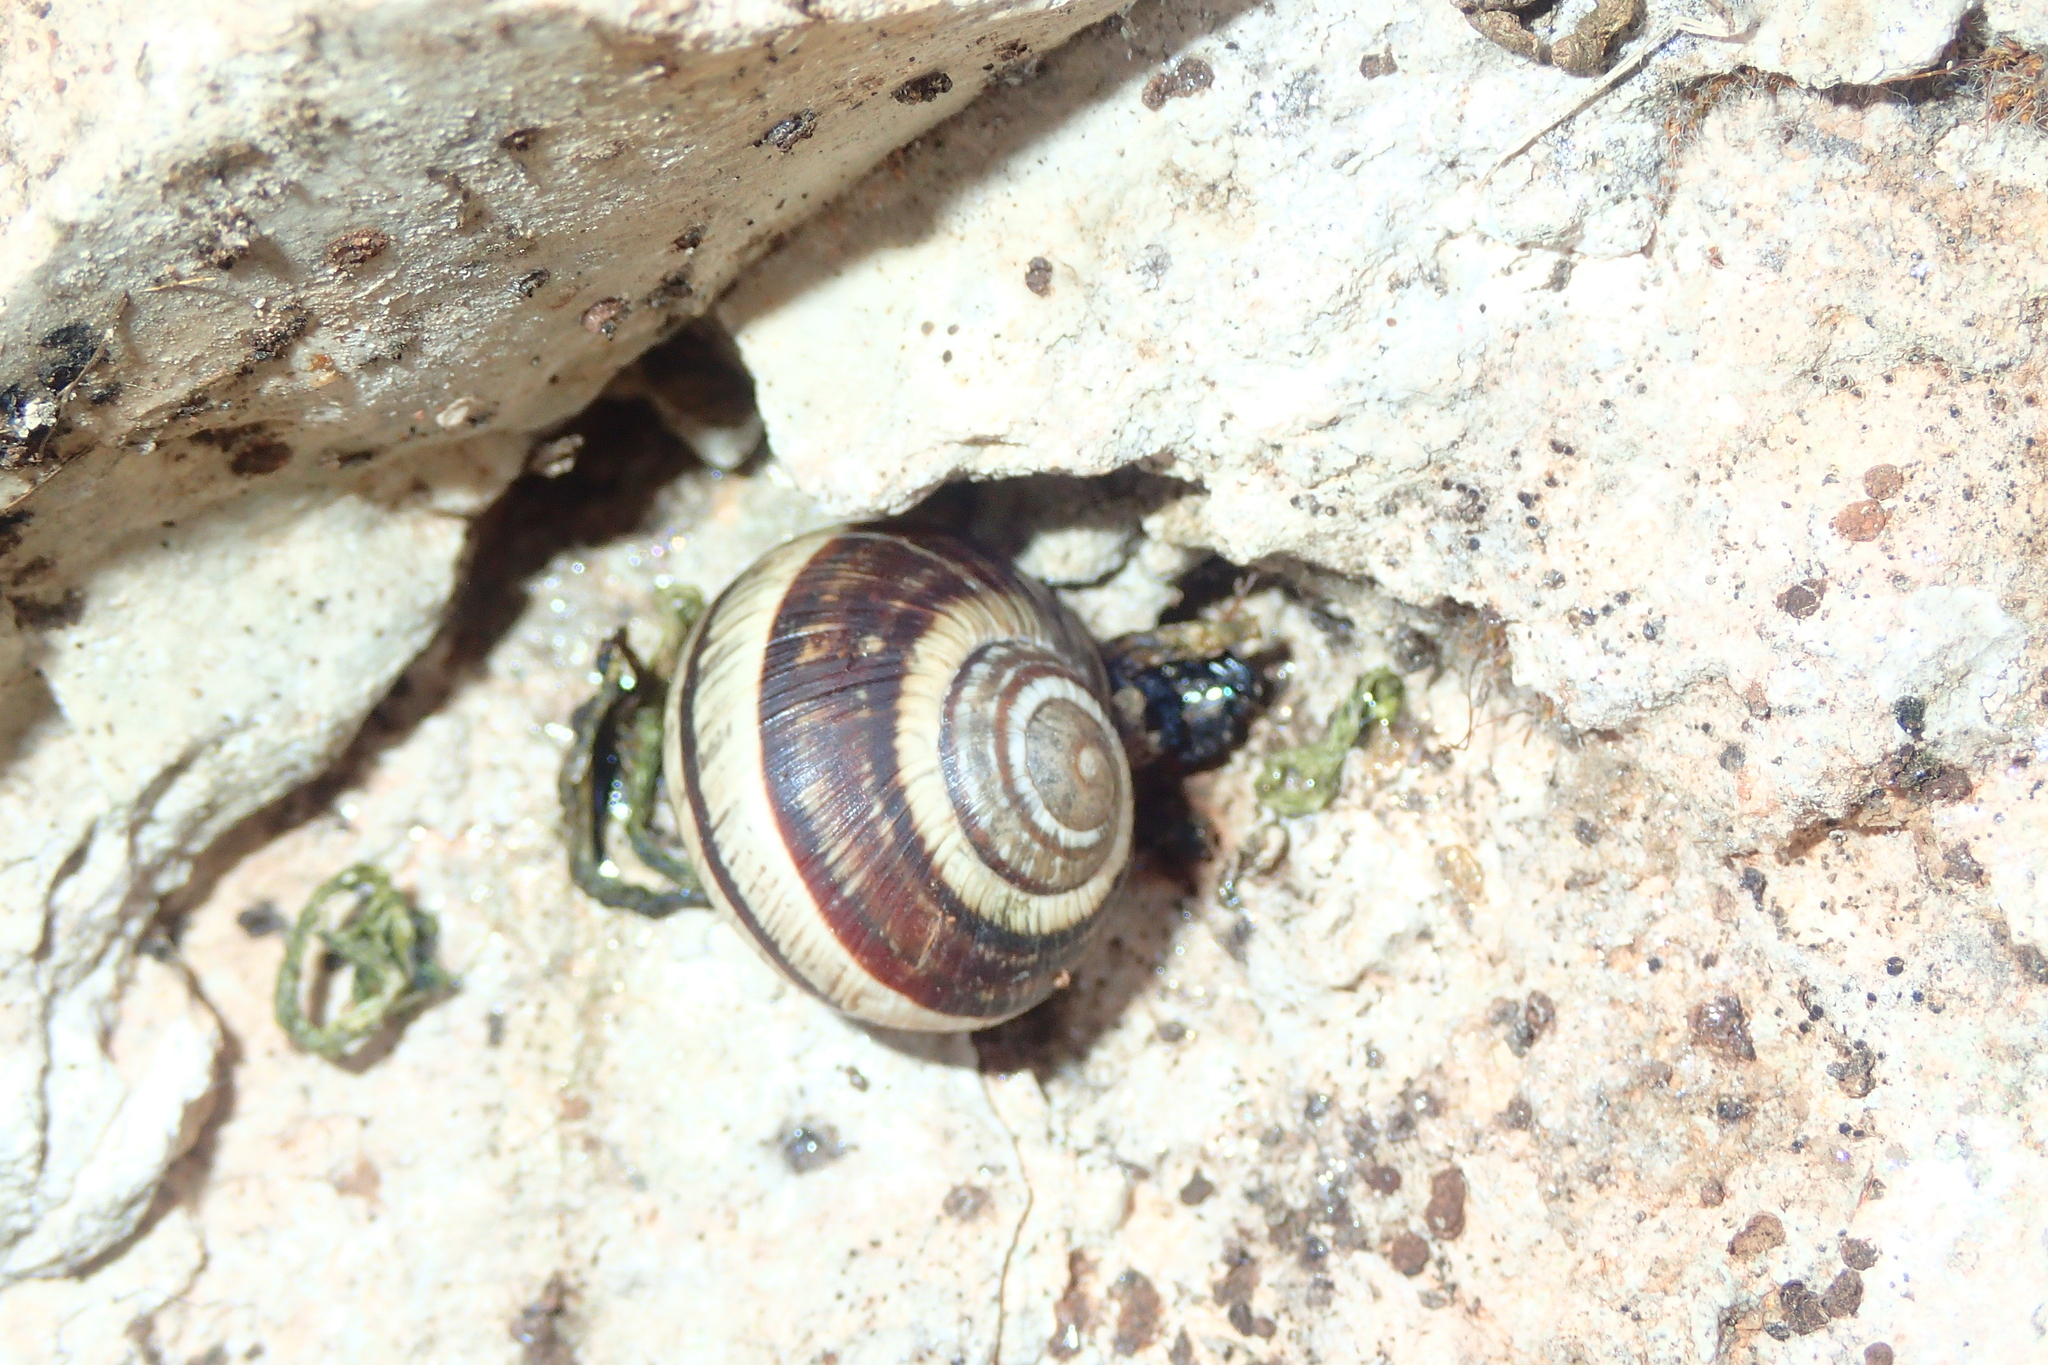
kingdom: Animalia
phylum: Mollusca
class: Gastropoda
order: Stylommatophora
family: Helicidae
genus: Helix
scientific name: Helix cincta
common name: Greek banded snail
